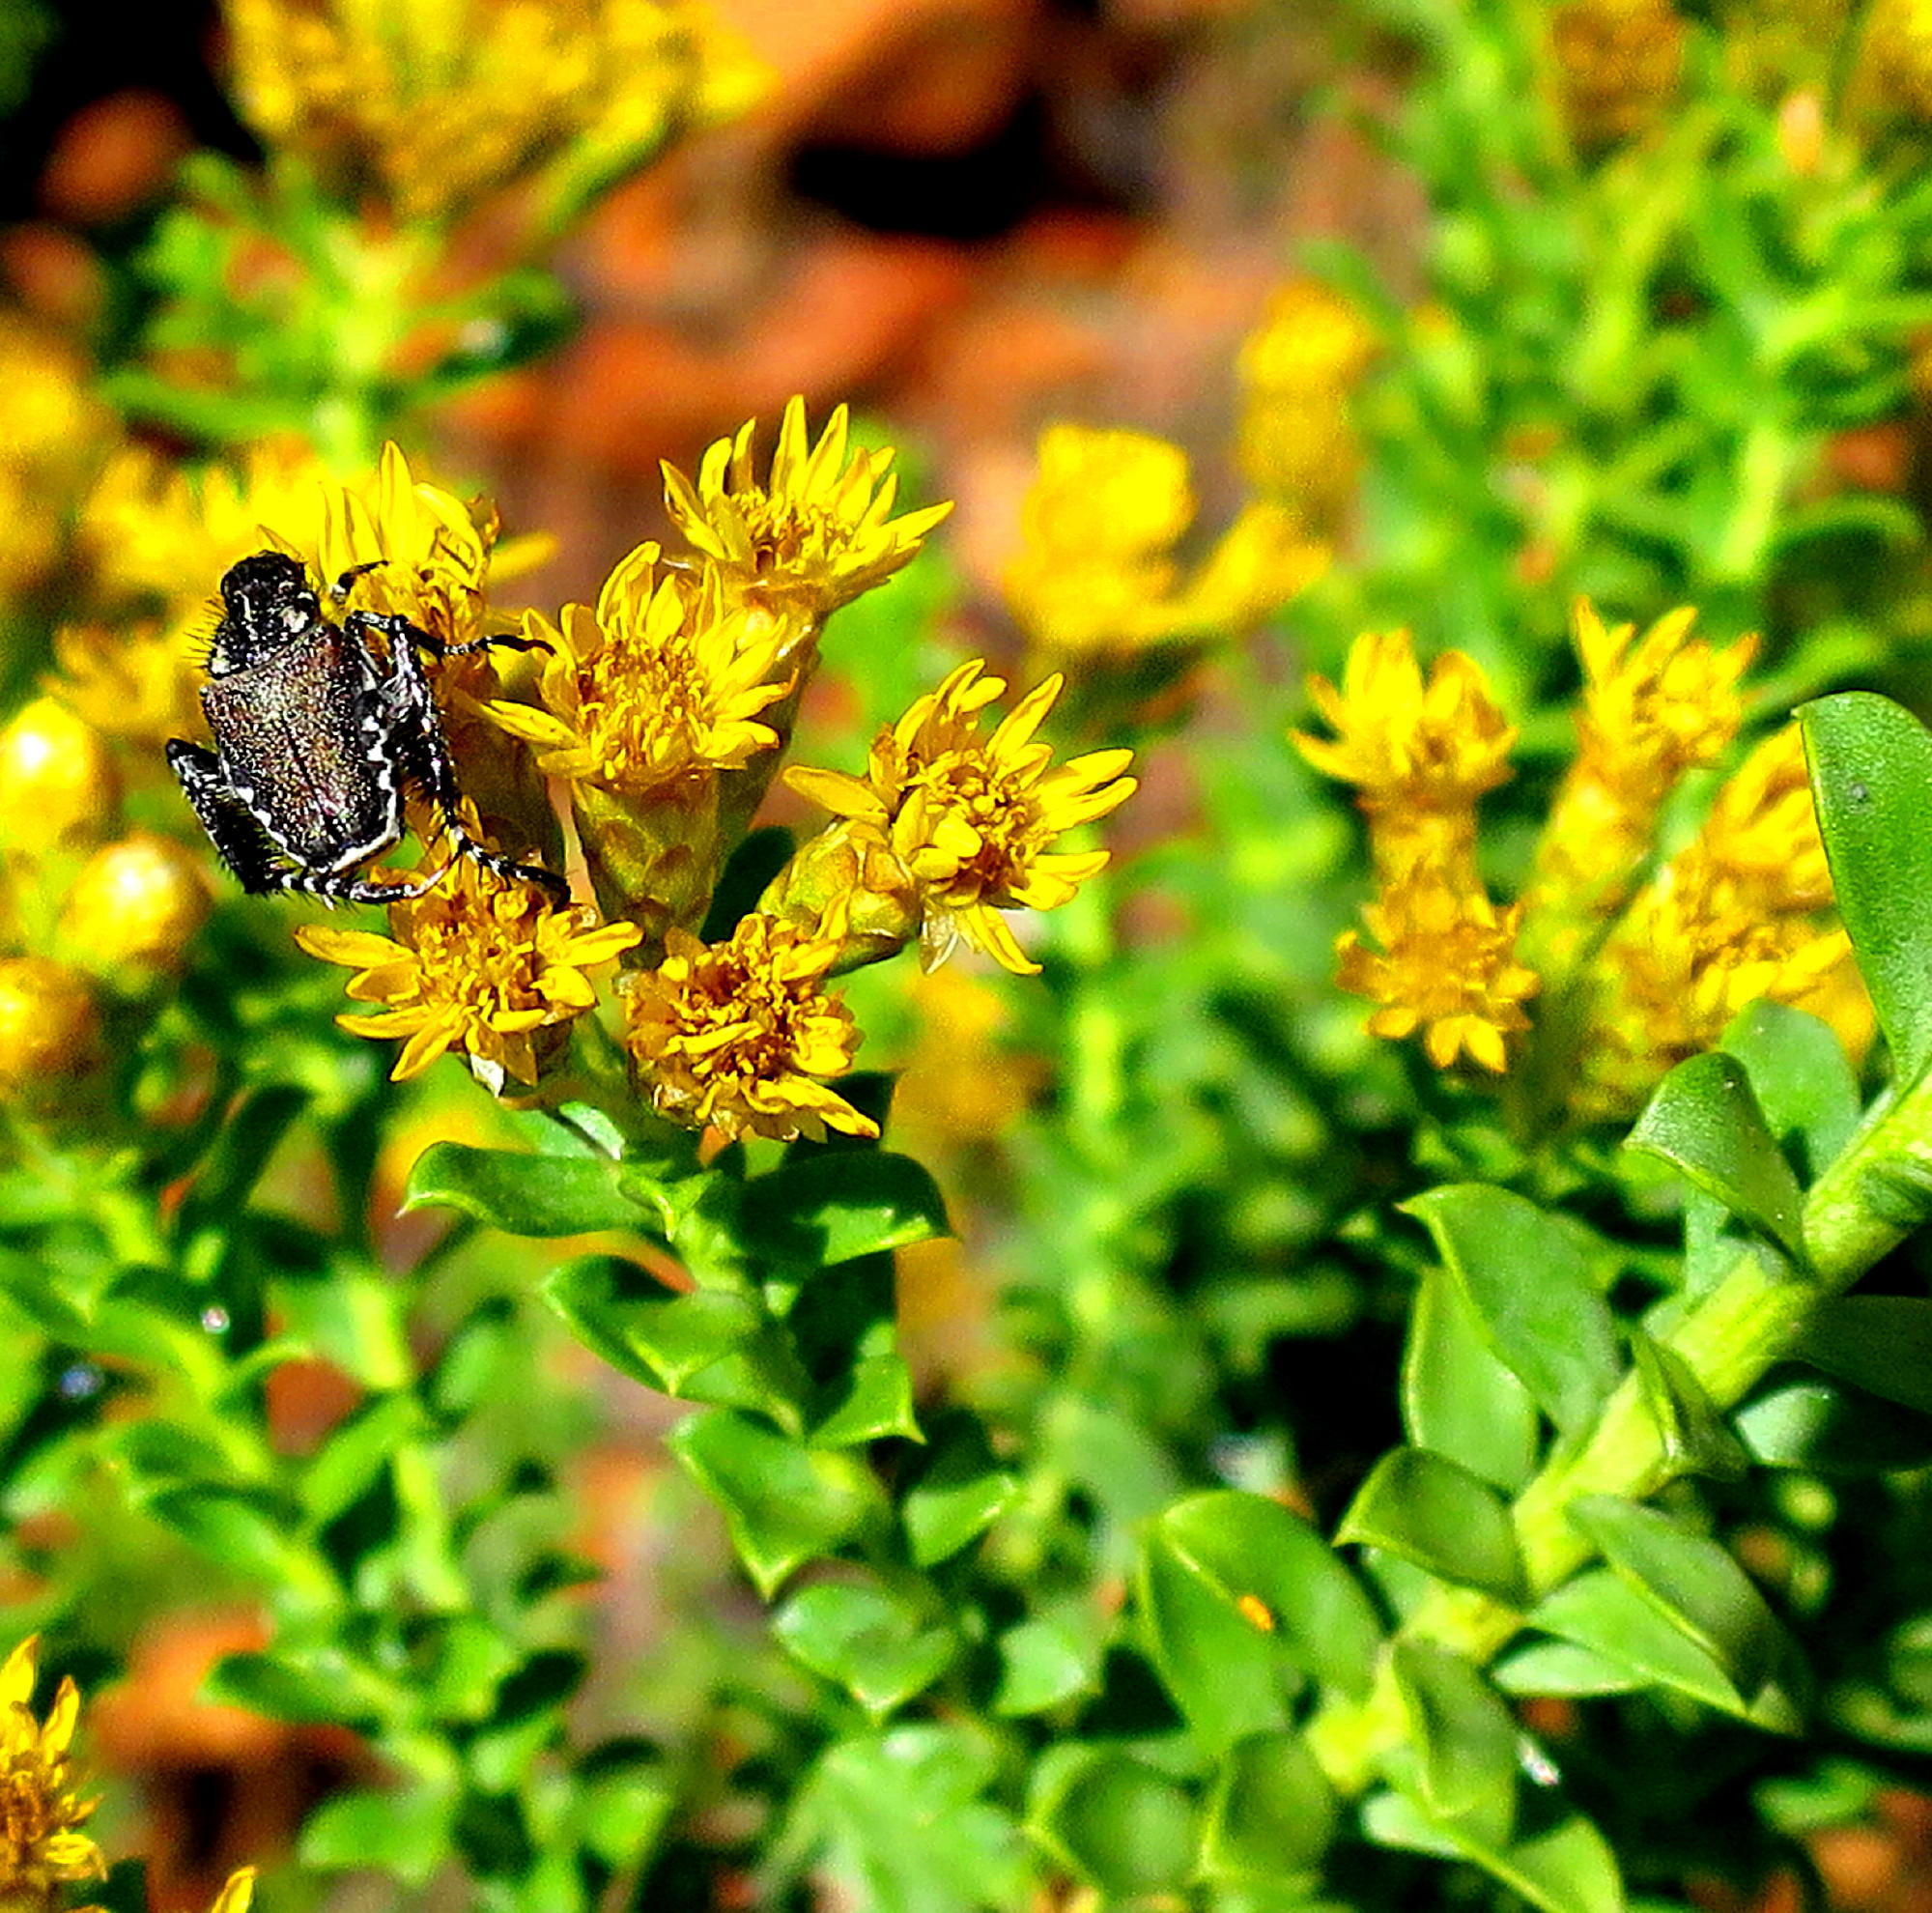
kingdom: Plantae
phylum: Tracheophyta
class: Magnoliopsida
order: Asterales
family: Asteraceae
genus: Oedera
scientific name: Oedera squarrosa
